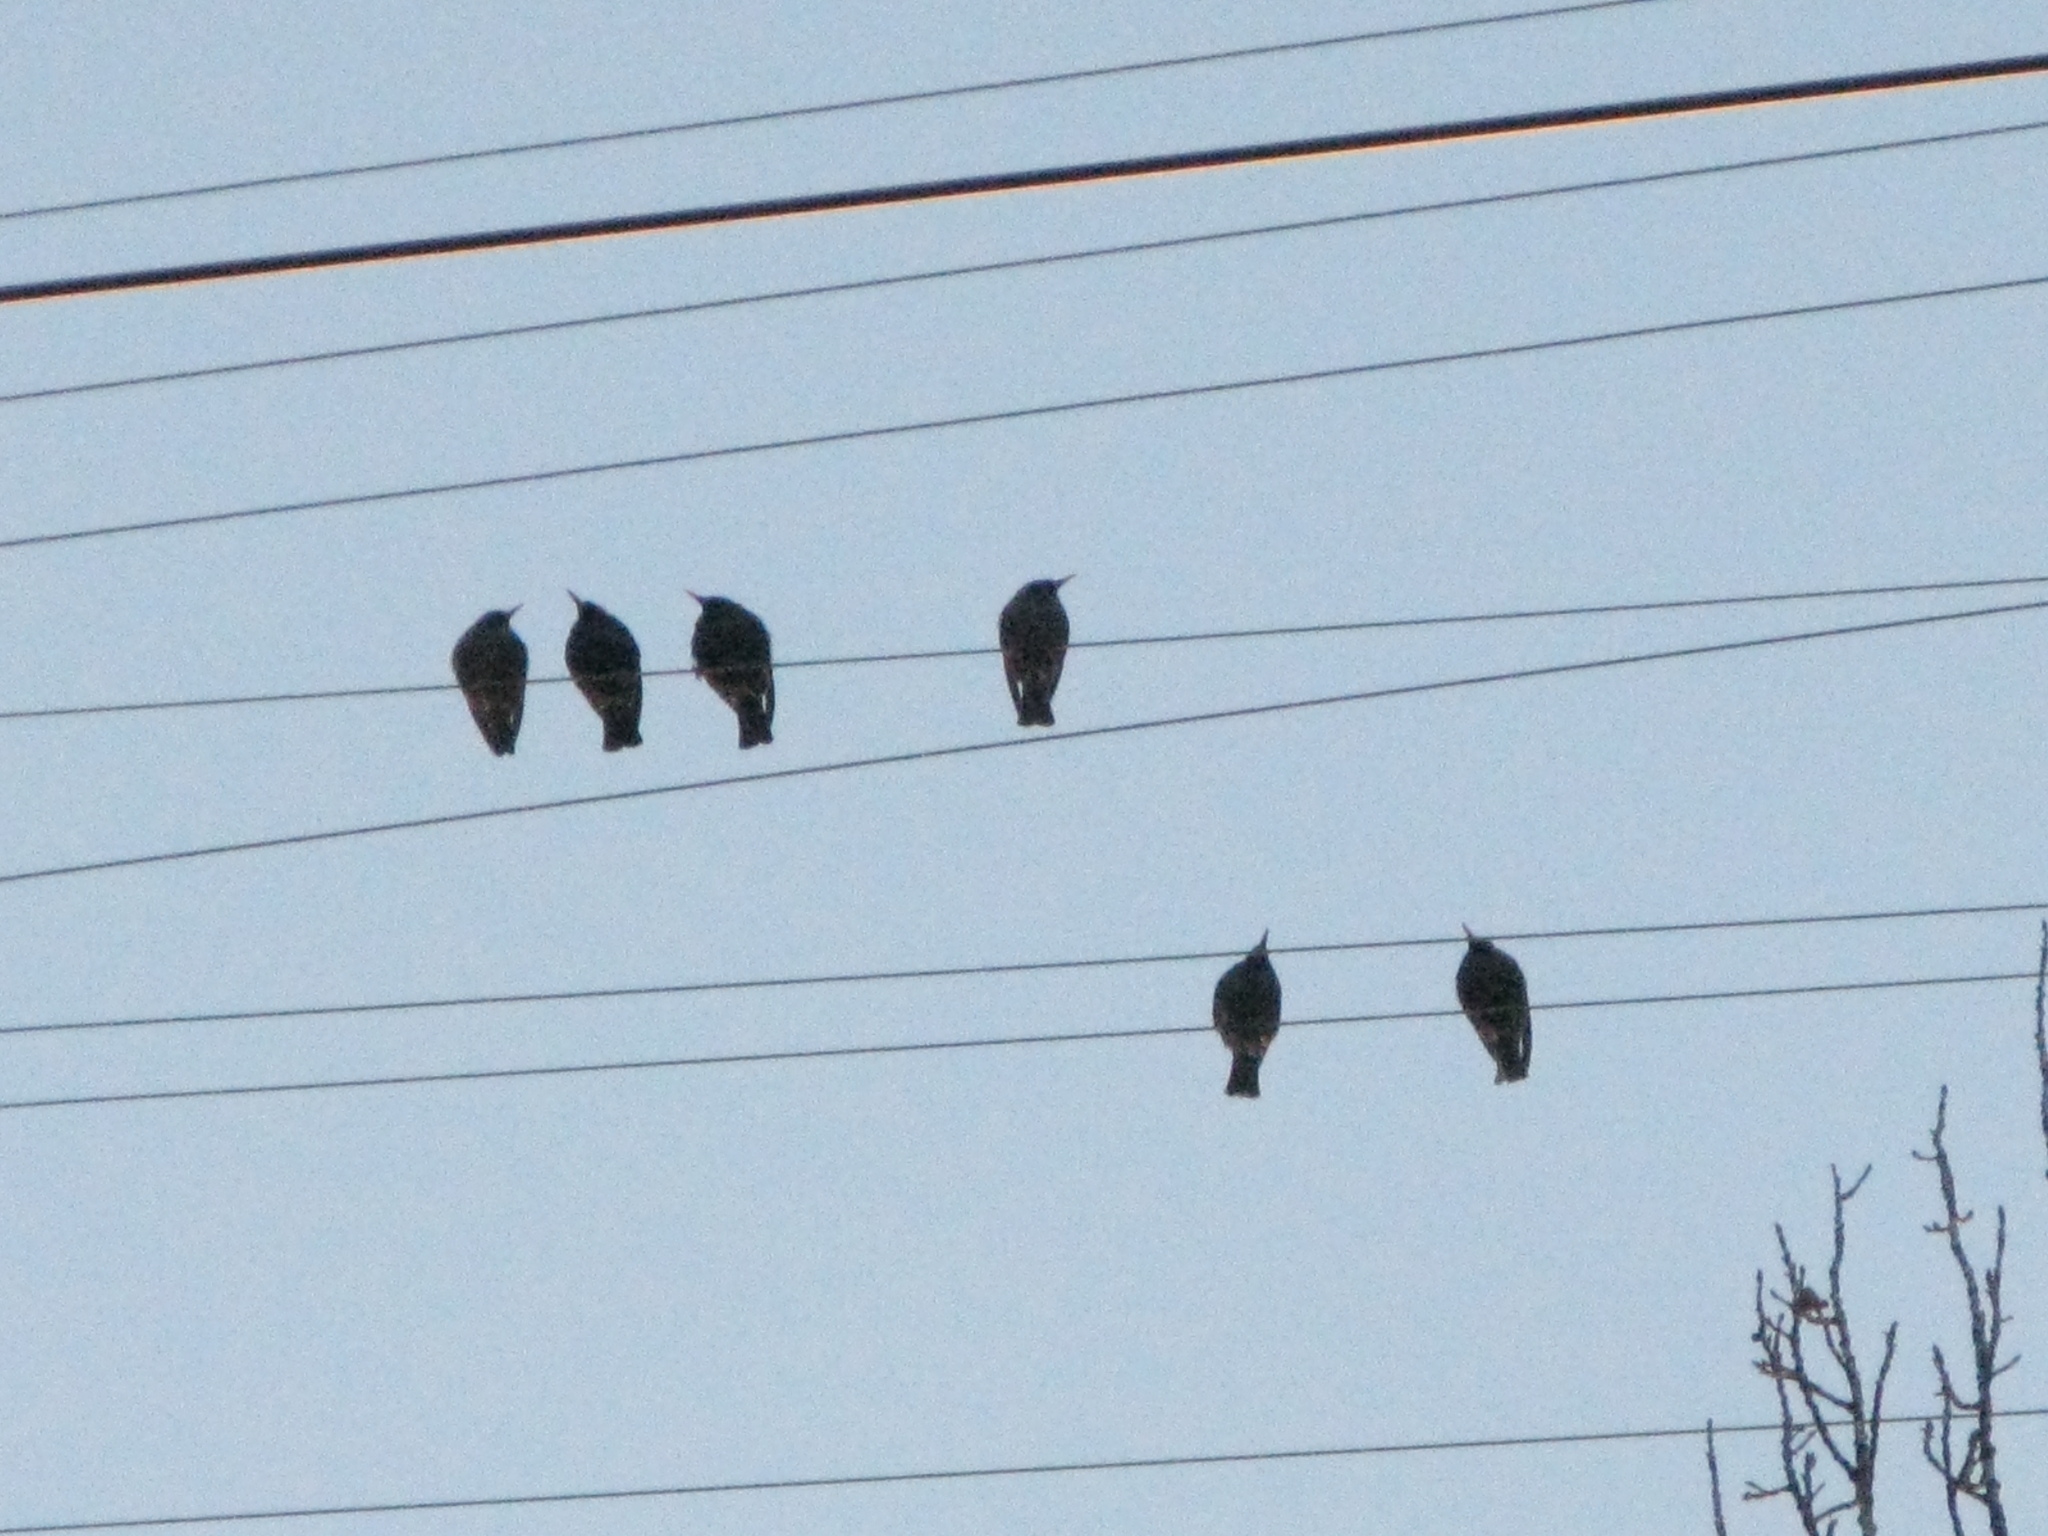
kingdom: Animalia
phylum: Chordata
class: Aves
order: Passeriformes
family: Sturnidae
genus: Sturnus
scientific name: Sturnus vulgaris
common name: Common starling
